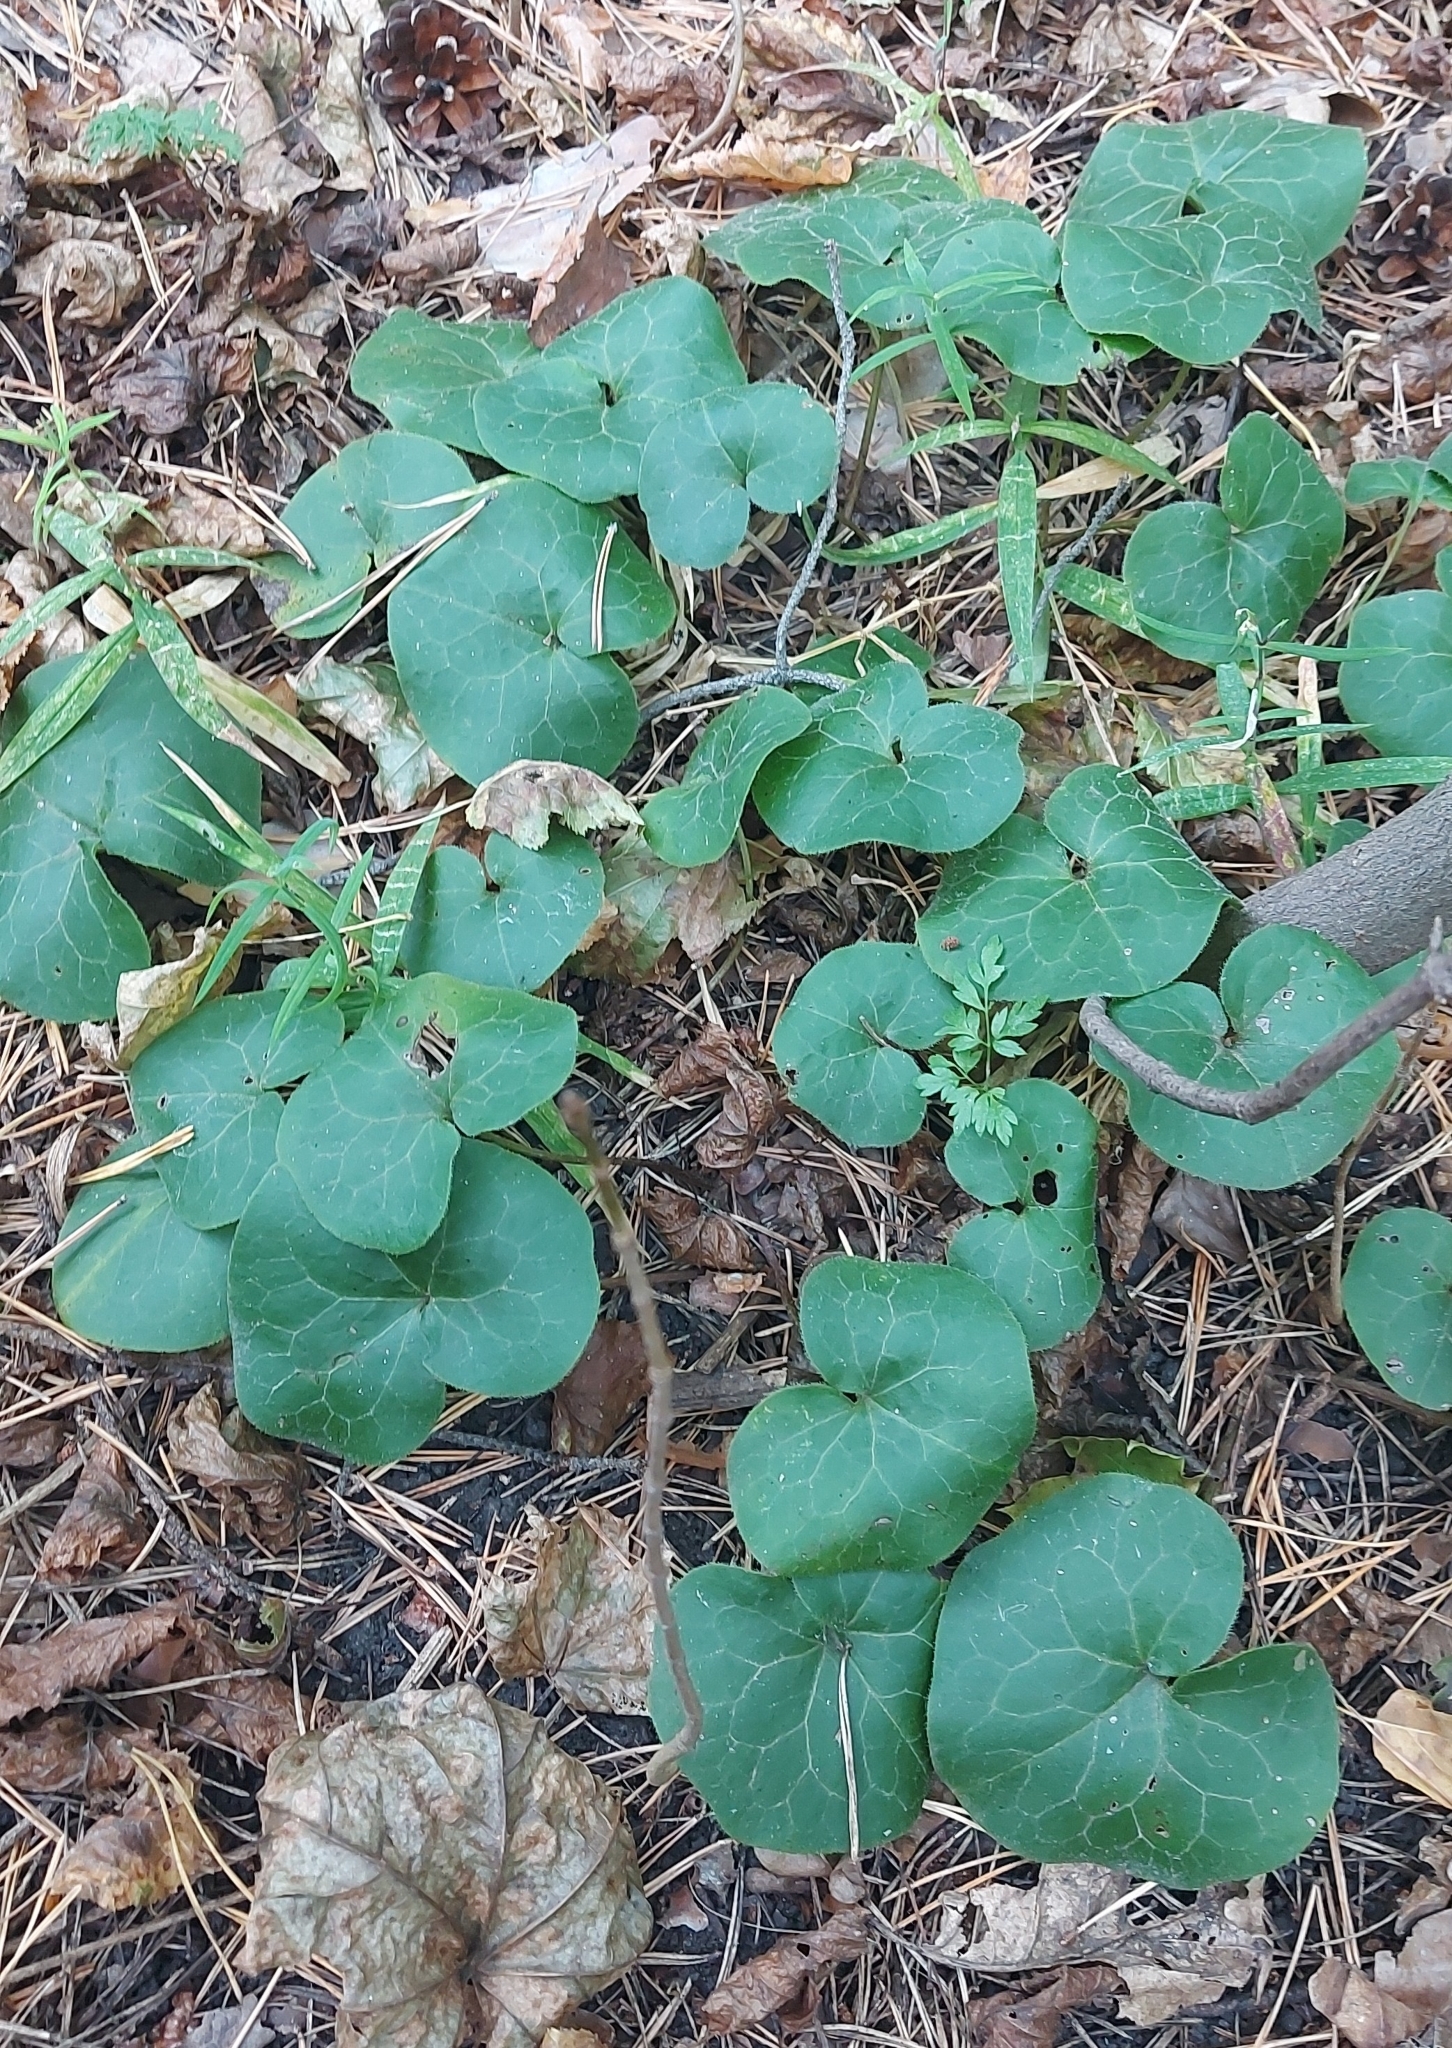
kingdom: Plantae
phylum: Tracheophyta
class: Magnoliopsida
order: Piperales
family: Aristolochiaceae
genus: Asarum
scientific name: Asarum europaeum
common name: Asarabacca
